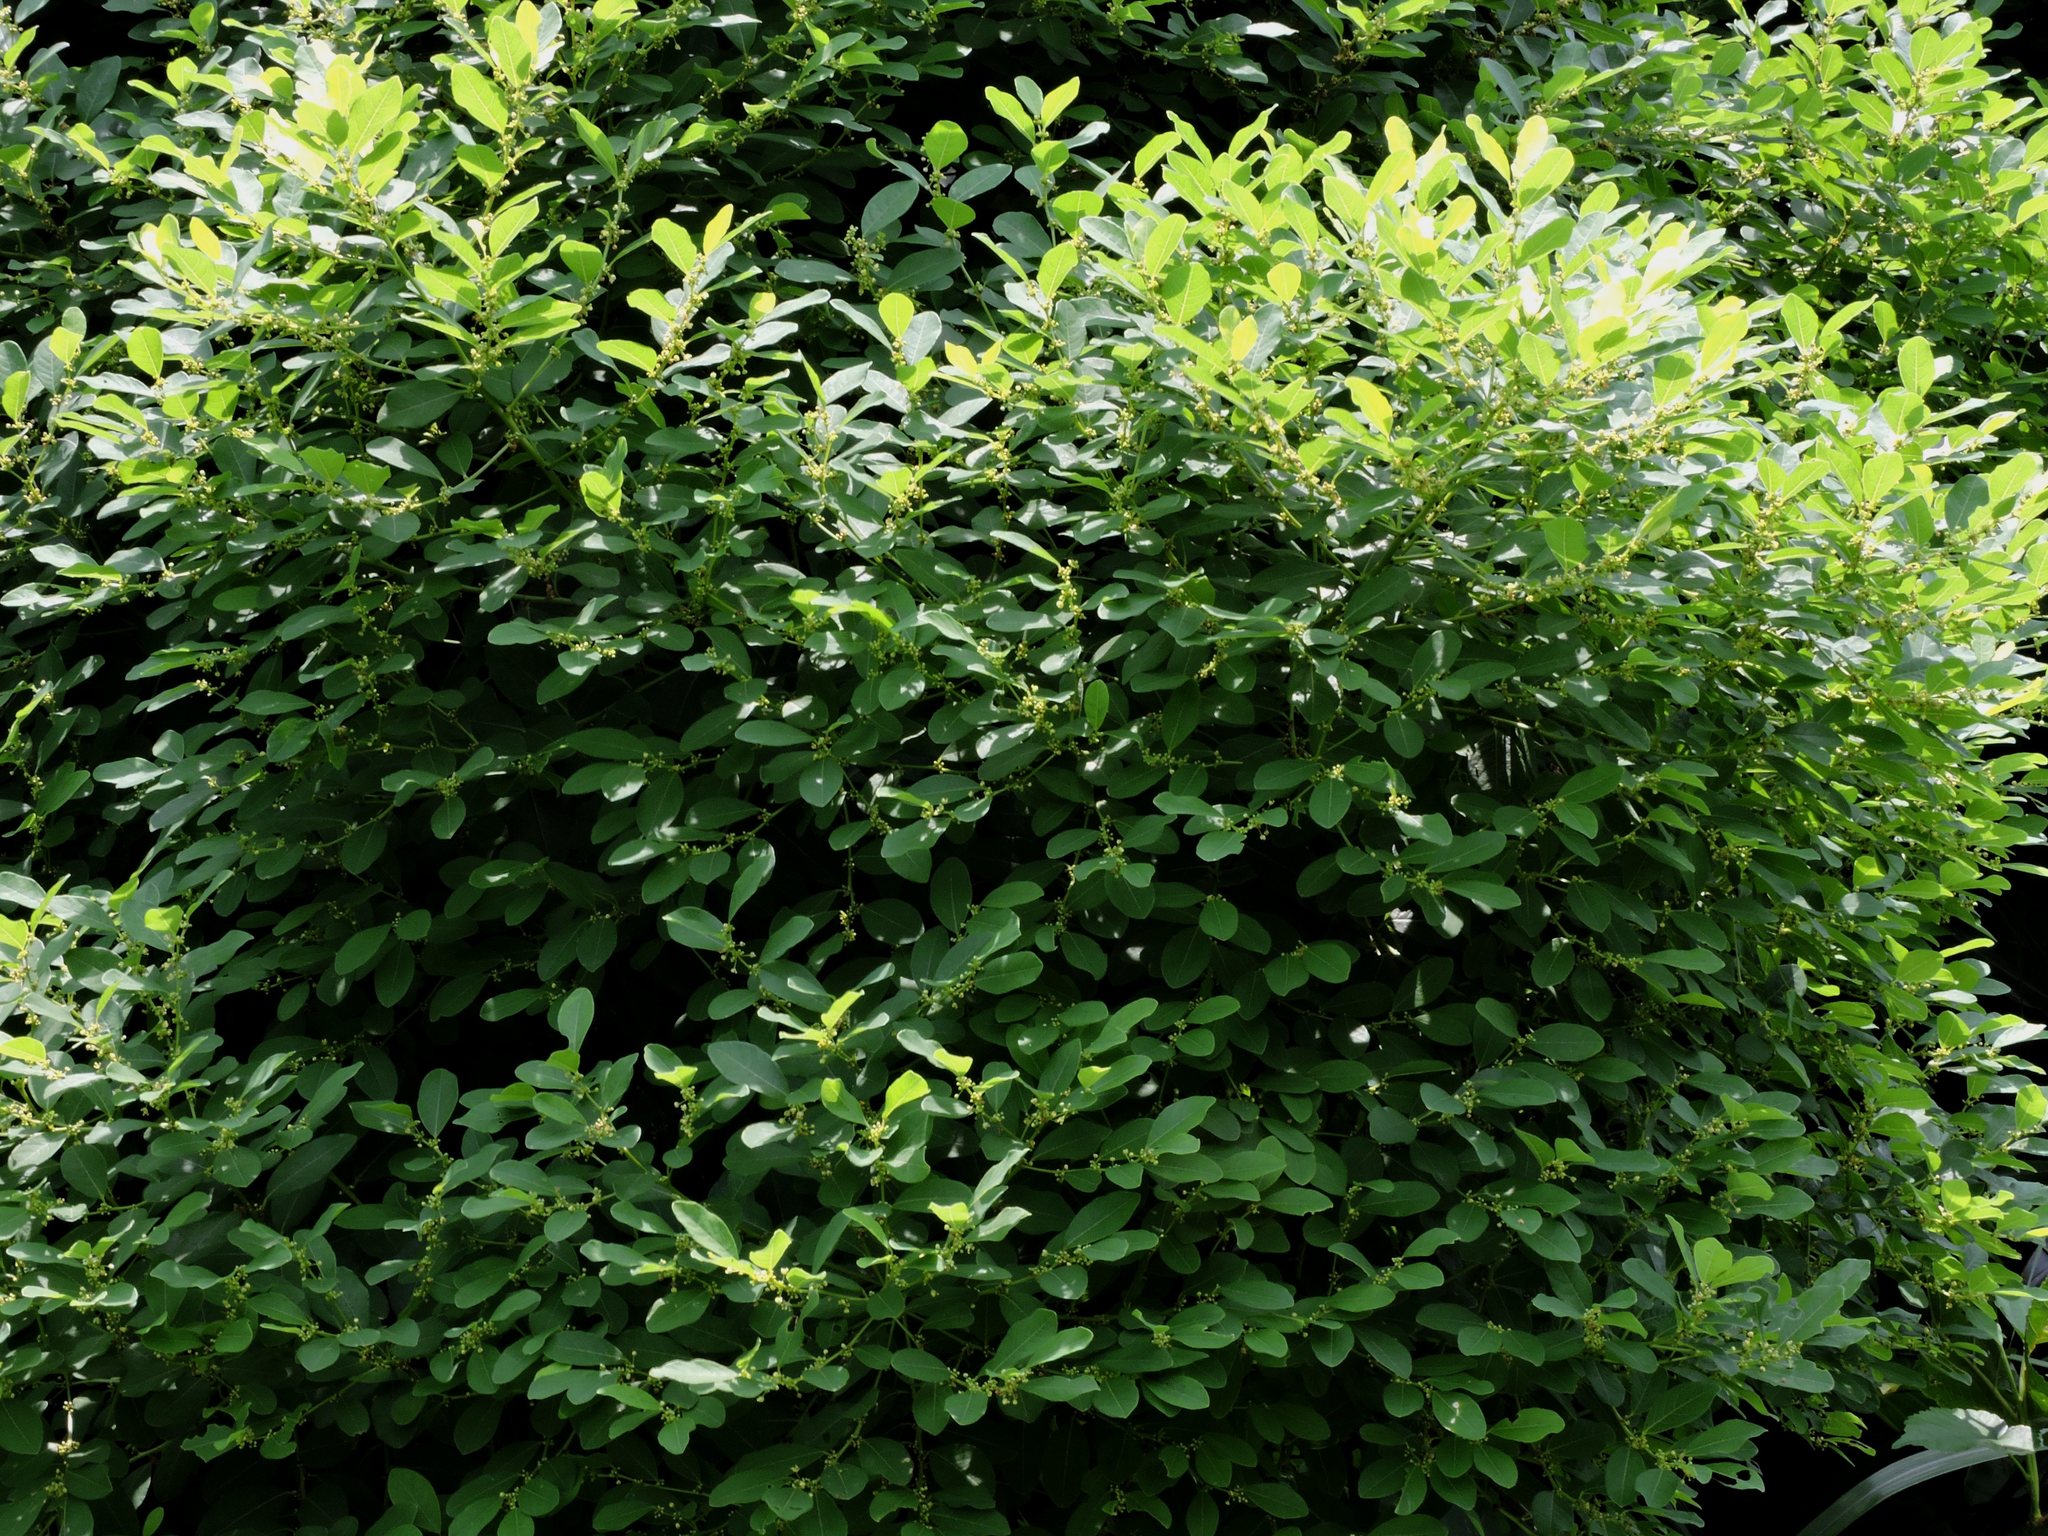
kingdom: Plantae
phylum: Tracheophyta
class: Magnoliopsida
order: Malpighiales
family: Phyllanthaceae
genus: Flueggea
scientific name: Flueggea suffruticosa
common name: Arching bushweed
